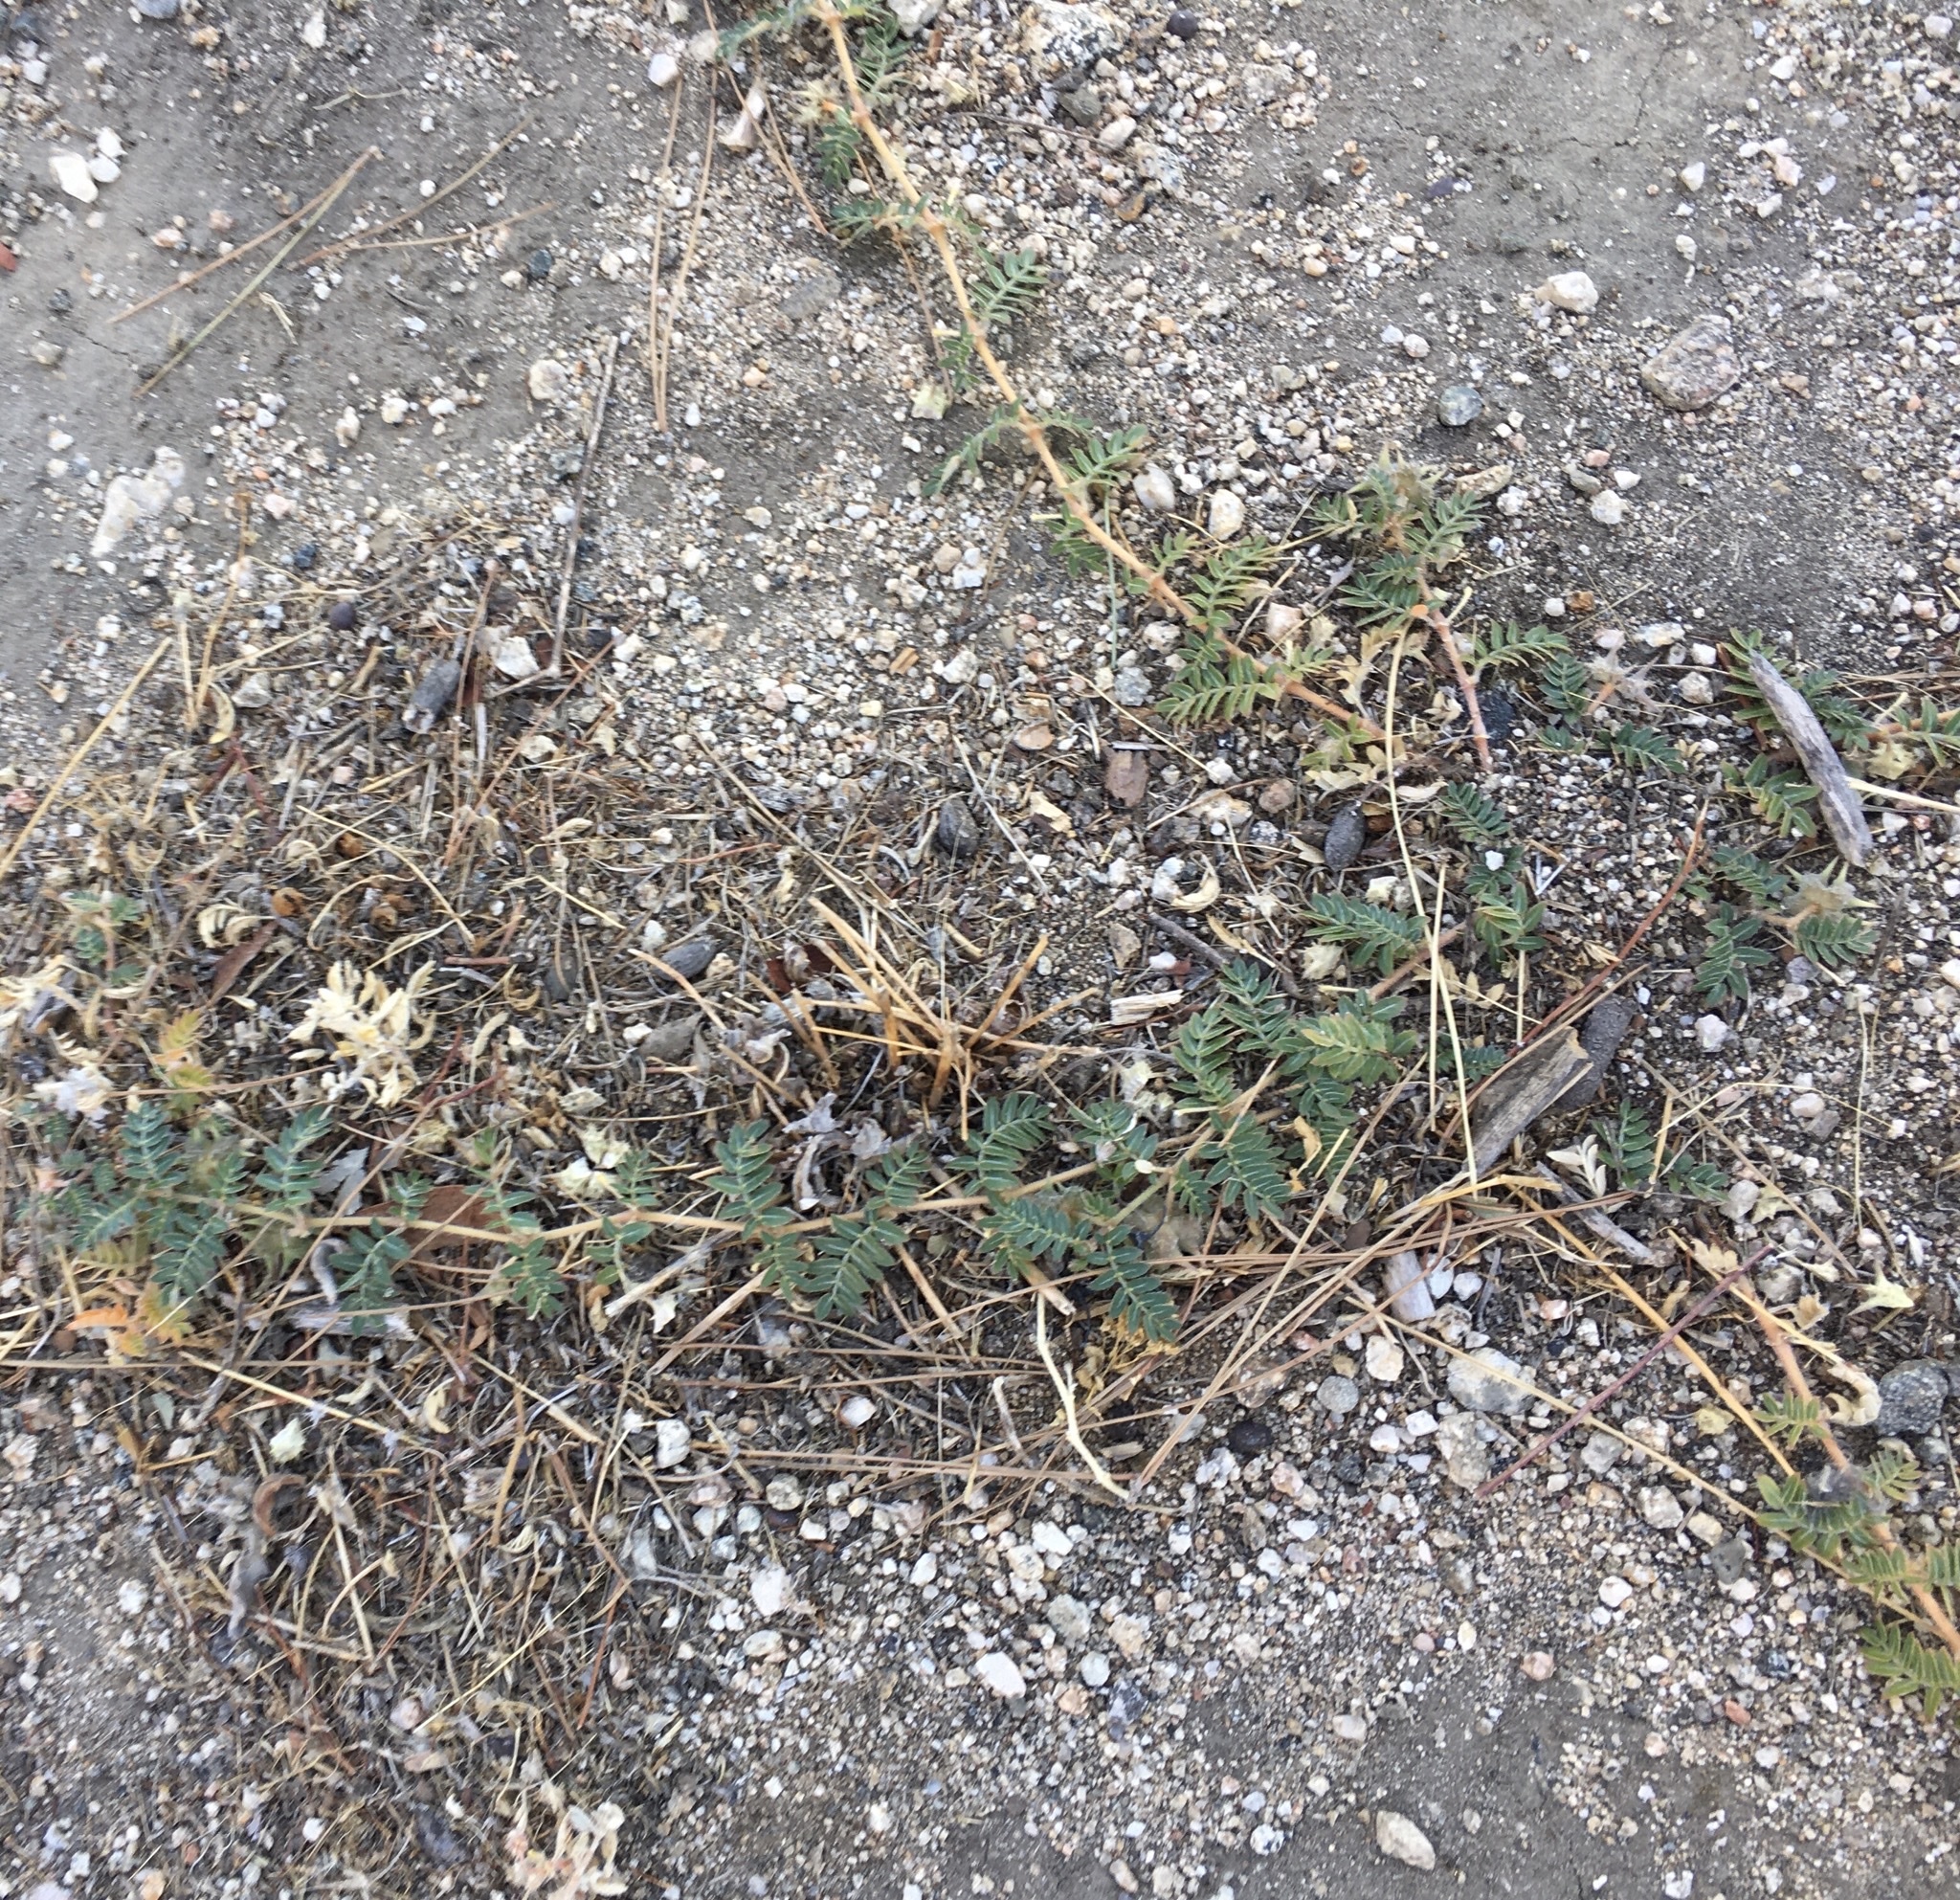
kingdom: Plantae
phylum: Tracheophyta
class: Magnoliopsida
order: Zygophyllales
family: Zygophyllaceae
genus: Tribulus
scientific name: Tribulus terrestris
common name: Puncturevine
